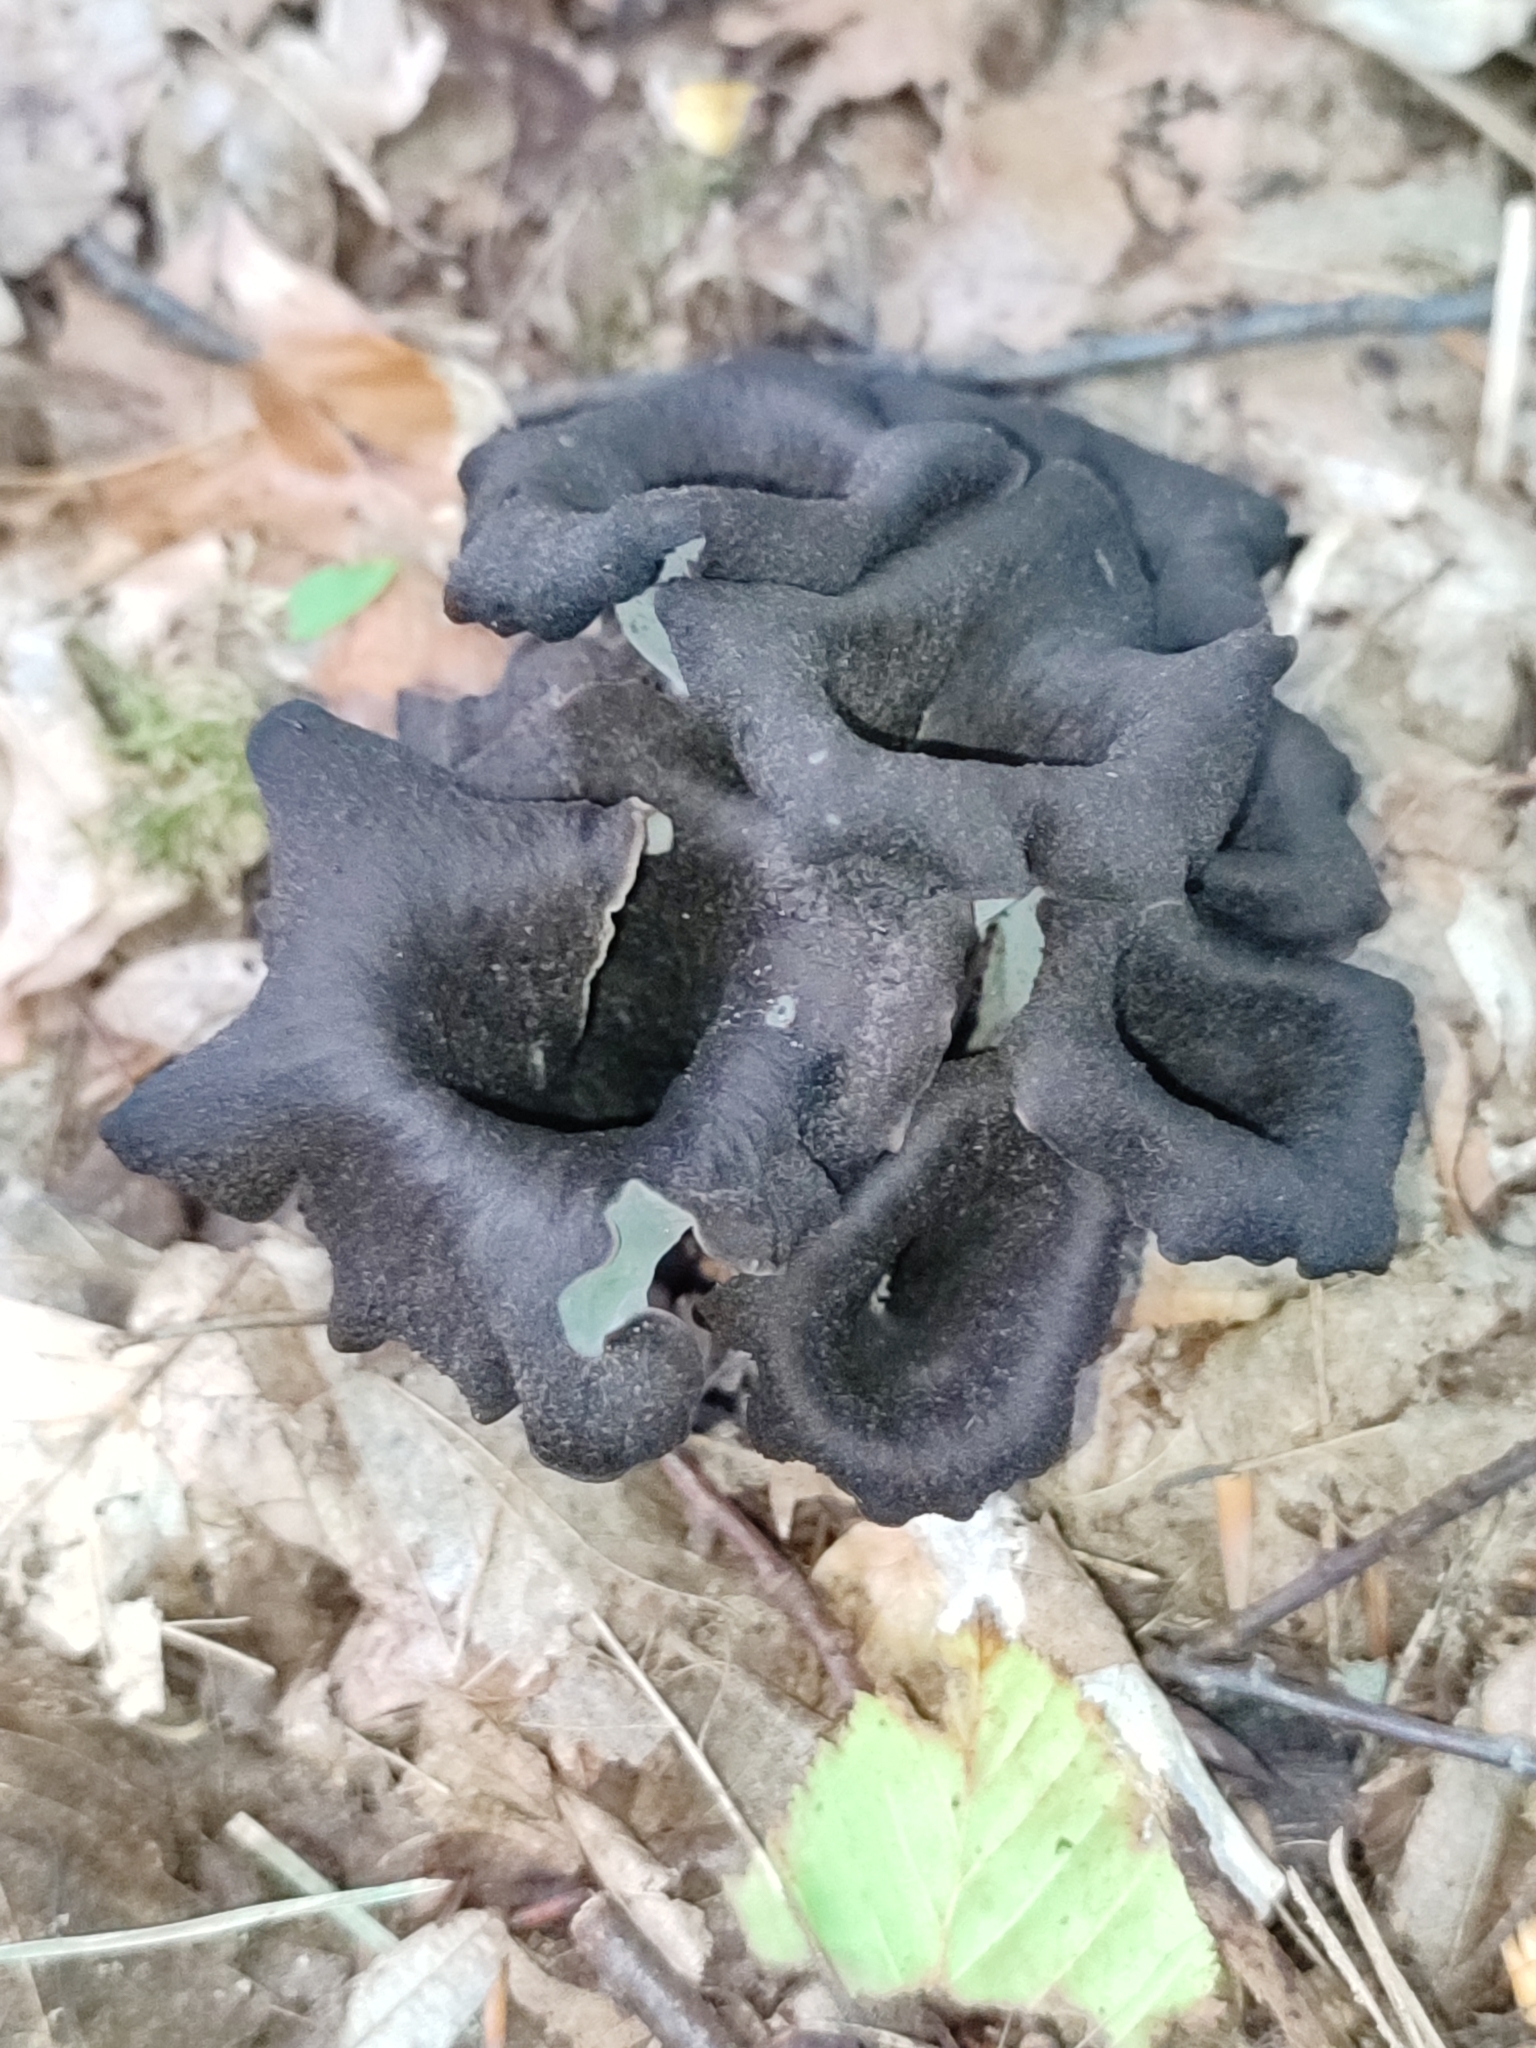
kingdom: Fungi
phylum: Basidiomycota
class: Agaricomycetes
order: Cantharellales
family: Hydnaceae
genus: Craterellus
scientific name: Craterellus cornucopioides
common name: Horn of plenty
